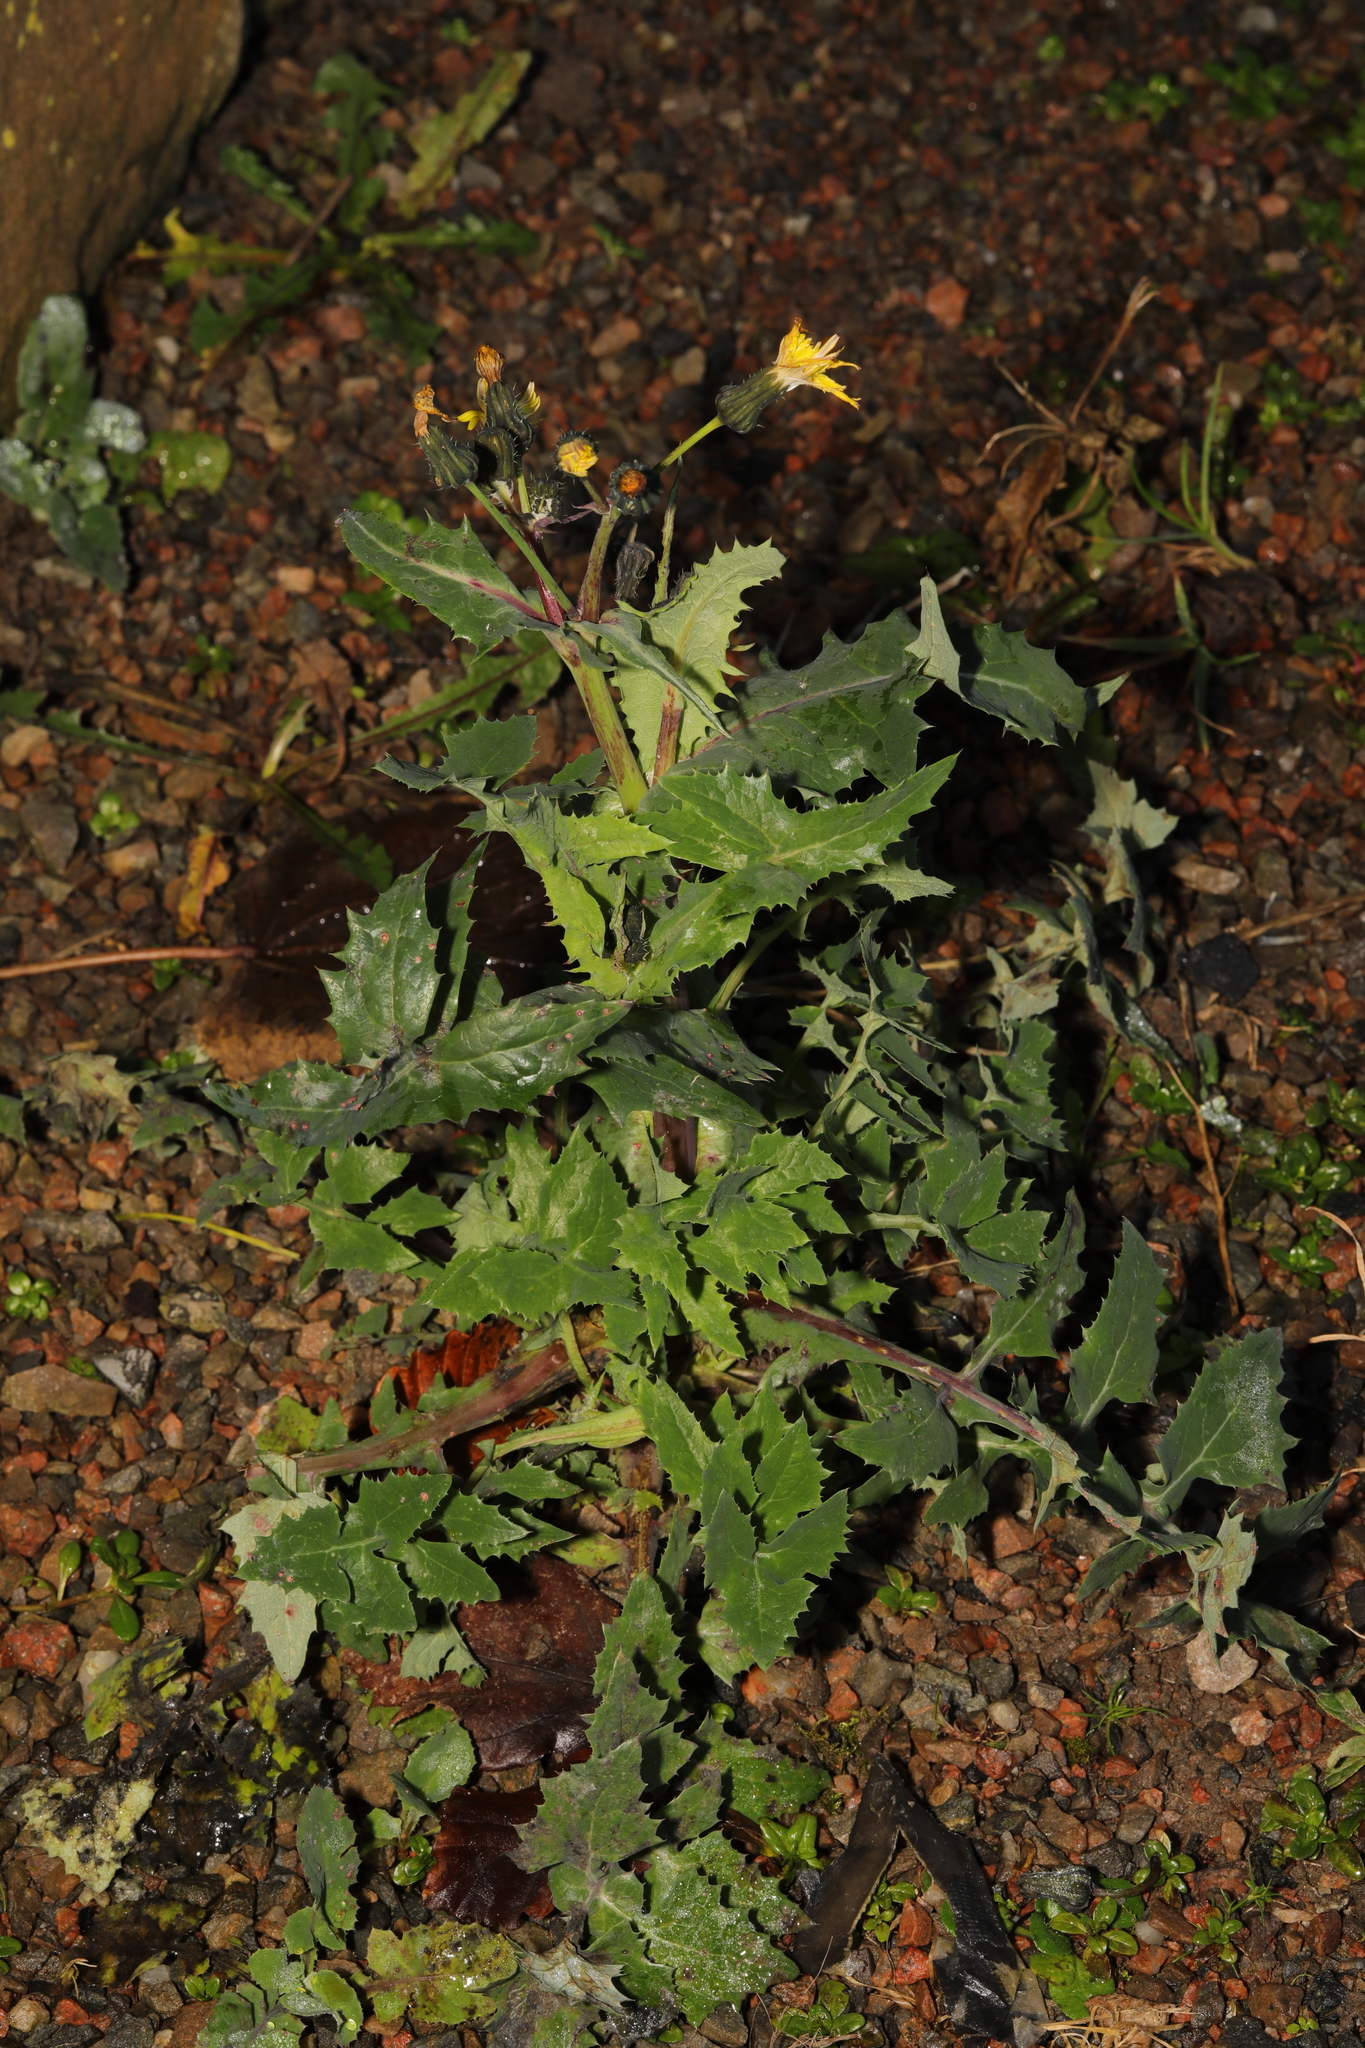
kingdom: Plantae
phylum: Tracheophyta
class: Magnoliopsida
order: Asterales
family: Asteraceae
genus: Sonchus
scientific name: Sonchus oleraceus
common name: Common sowthistle
